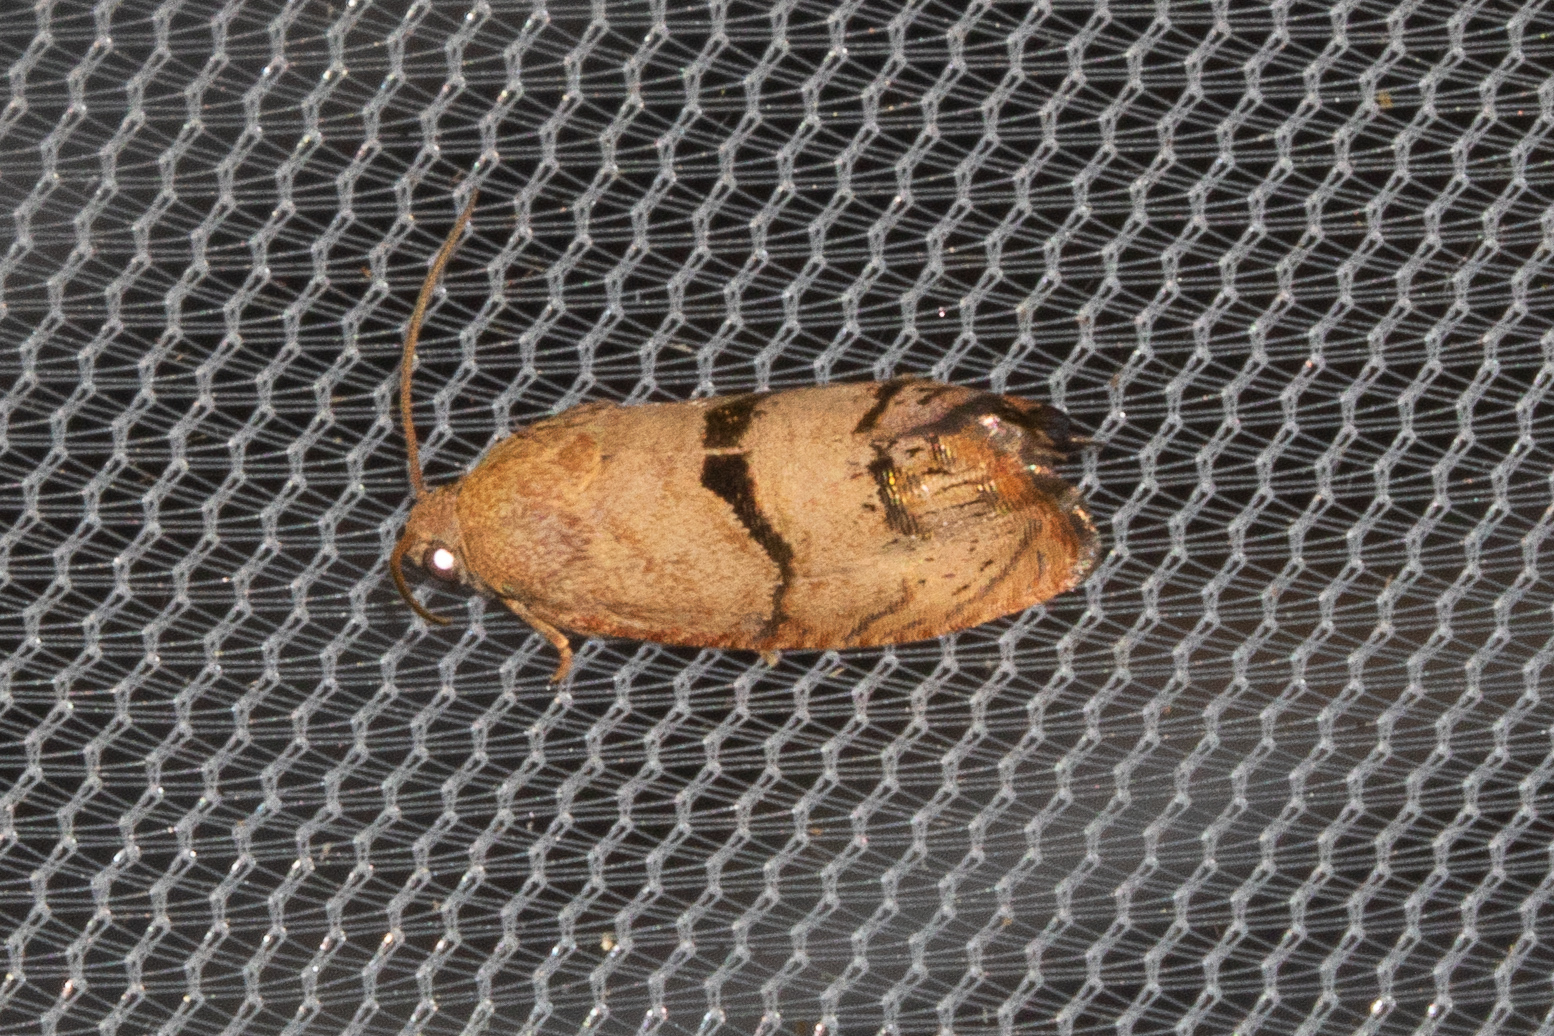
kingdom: Animalia
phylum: Arthropoda
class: Insecta
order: Lepidoptera
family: Tortricidae
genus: Cydia
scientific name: Cydia latiferreana
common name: Filbertworm moth
